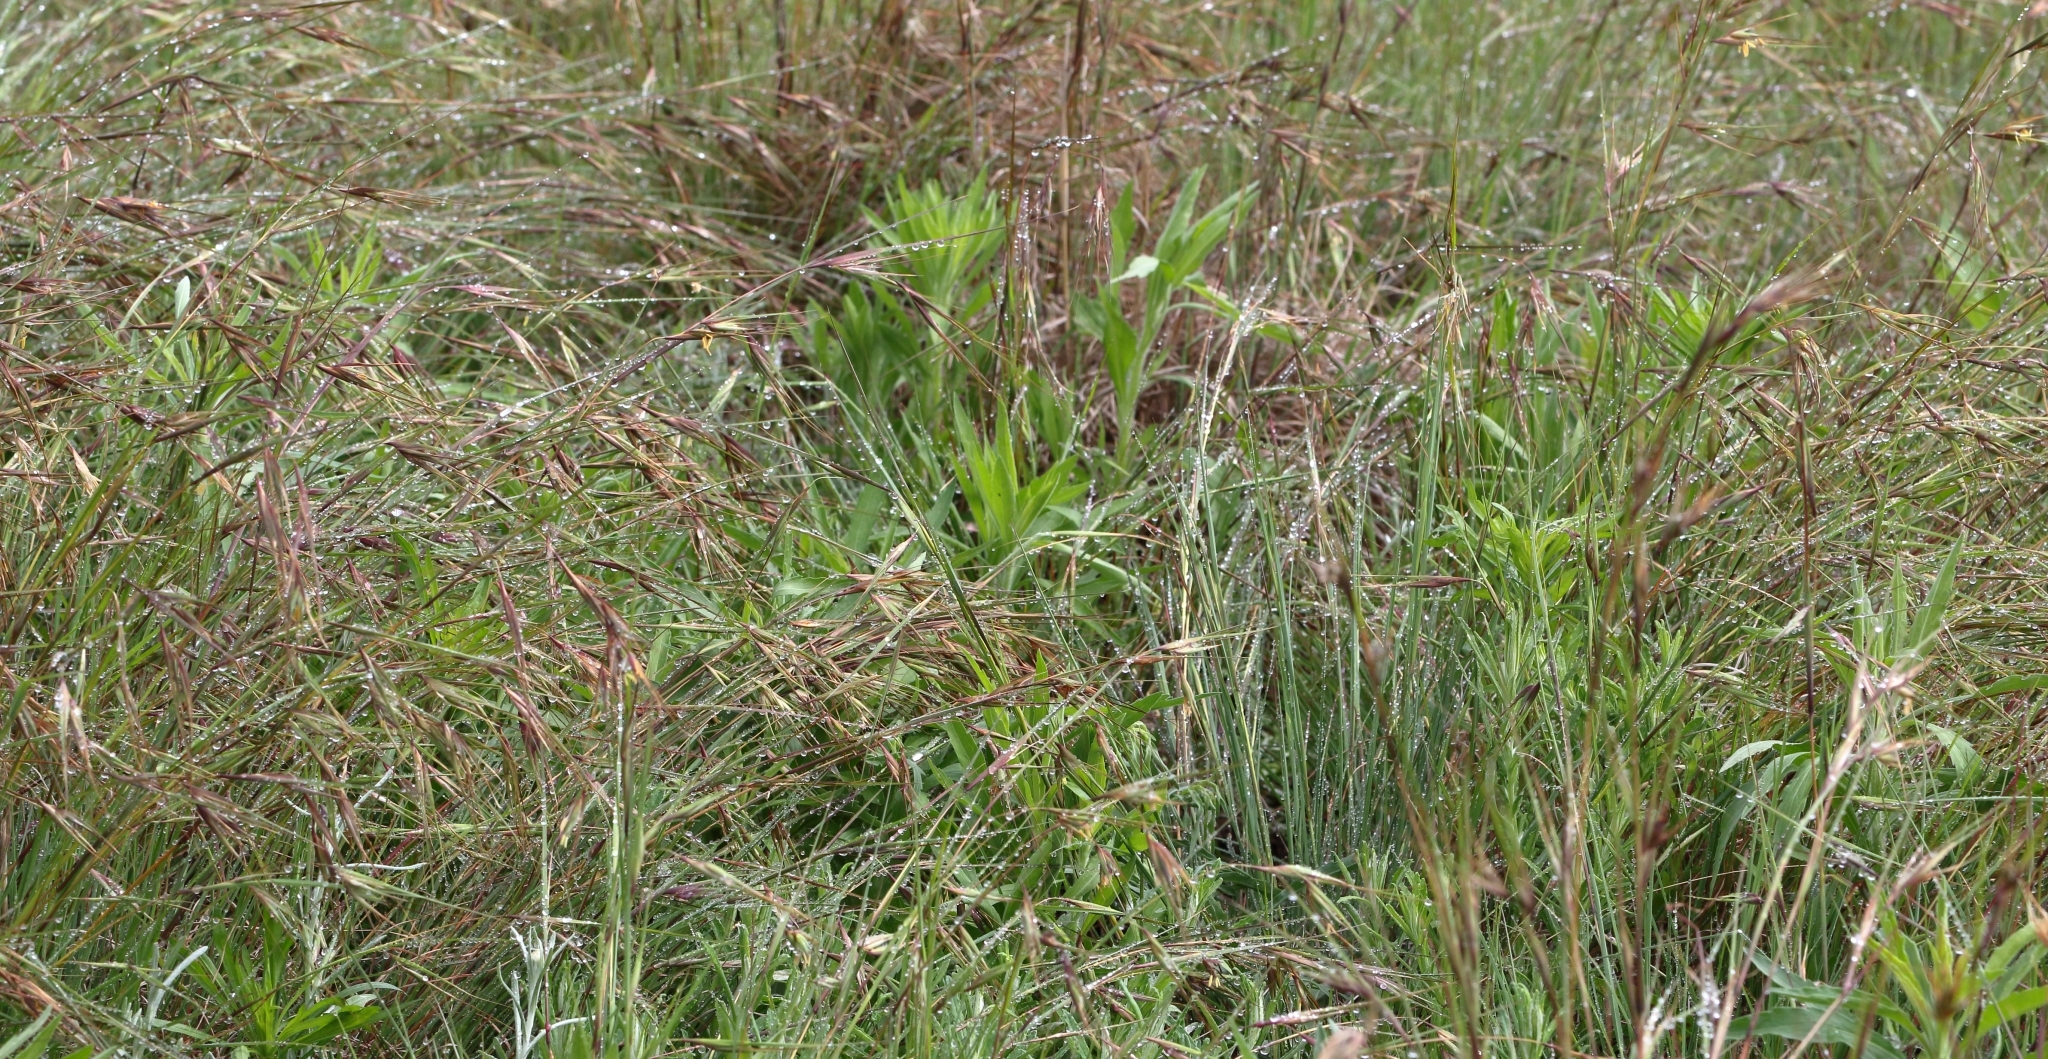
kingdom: Plantae
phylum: Tracheophyta
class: Liliopsida
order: Poales
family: Poaceae
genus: Themeda
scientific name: Themeda triandra
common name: Kangaroo grass
